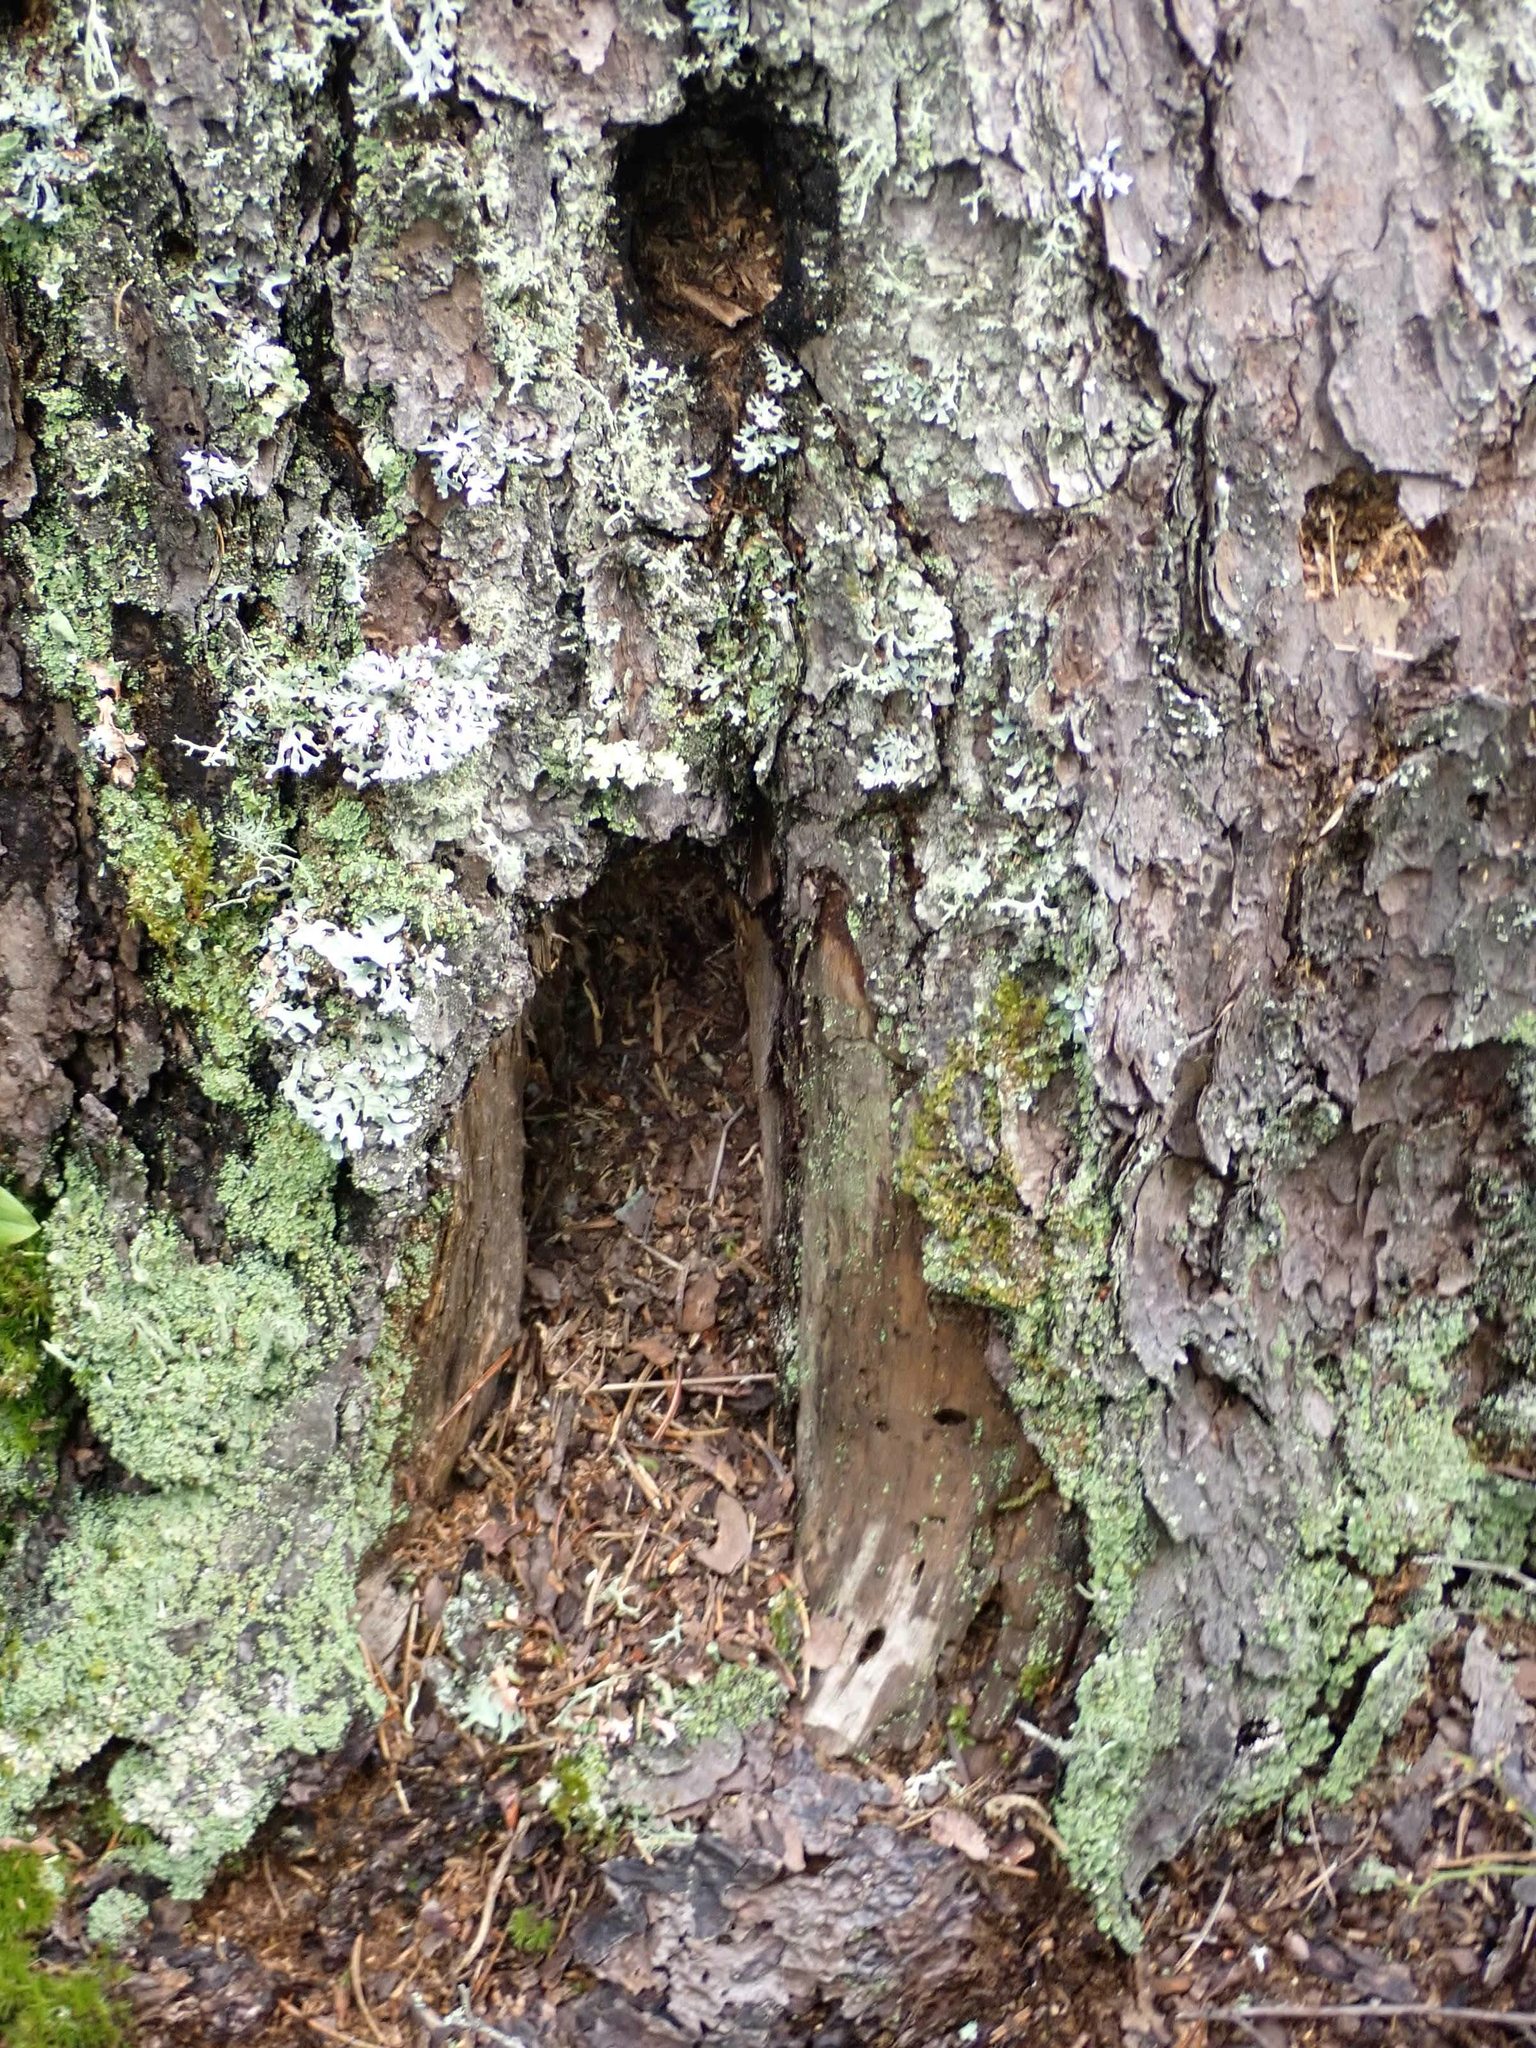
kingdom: Animalia
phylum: Chordata
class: Aves
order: Piciformes
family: Picidae
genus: Dryocopus
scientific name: Dryocopus pileatus
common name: Pileated woodpecker
